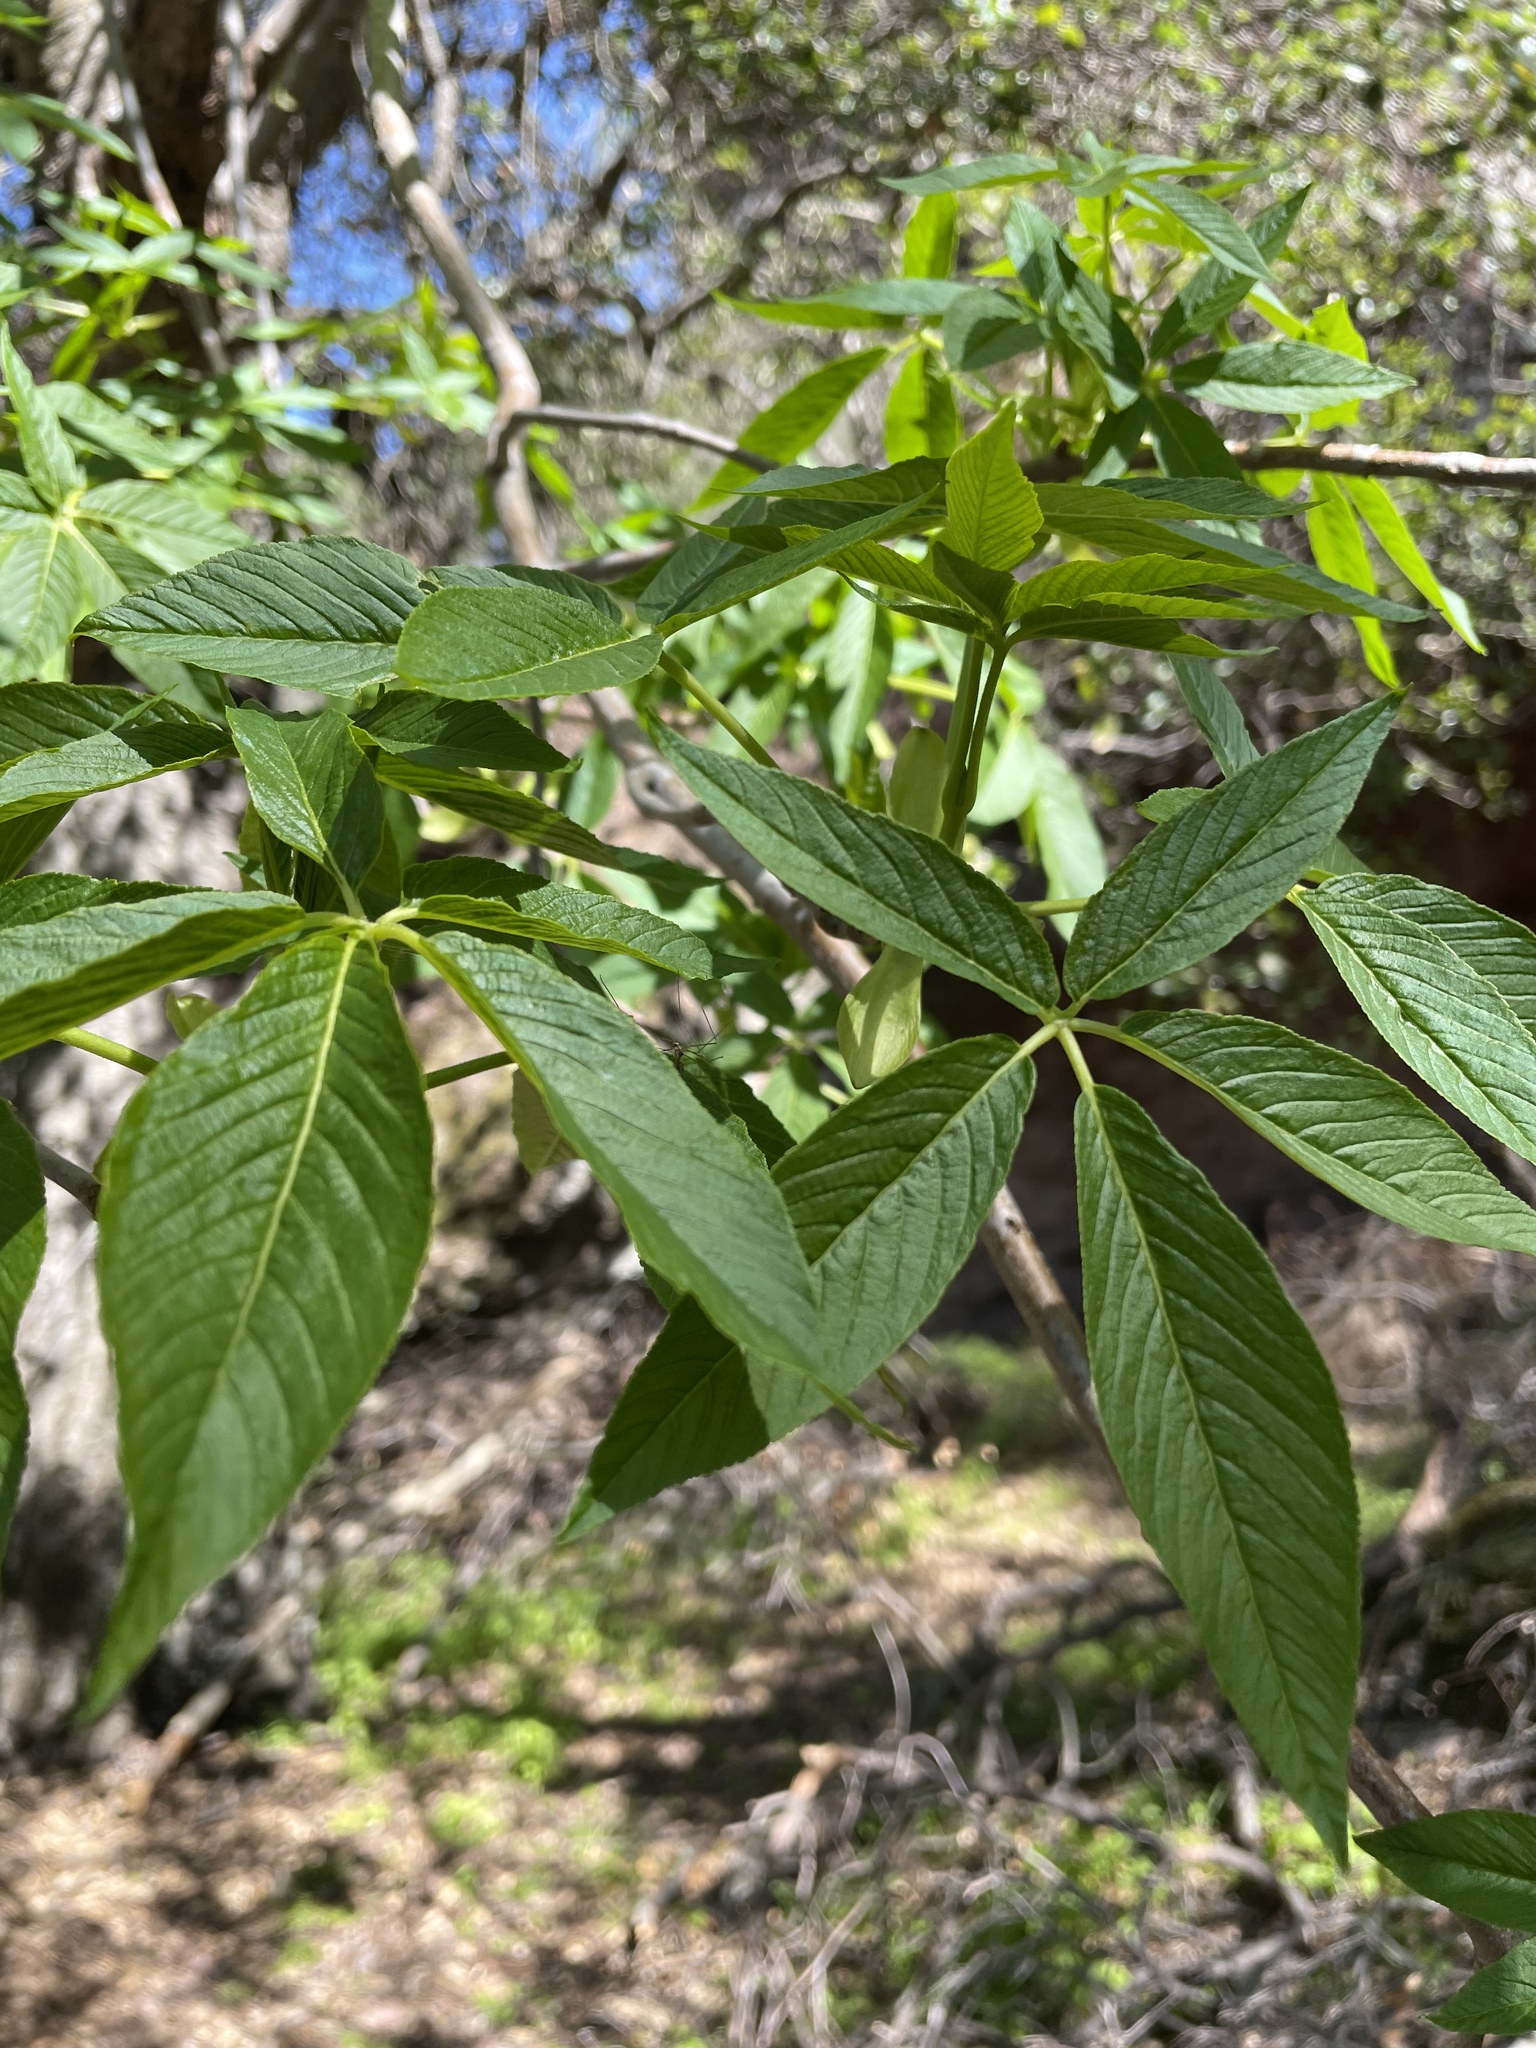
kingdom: Plantae
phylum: Tracheophyta
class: Magnoliopsida
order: Sapindales
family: Sapindaceae
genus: Aesculus
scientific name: Aesculus californica
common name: California buckeye
